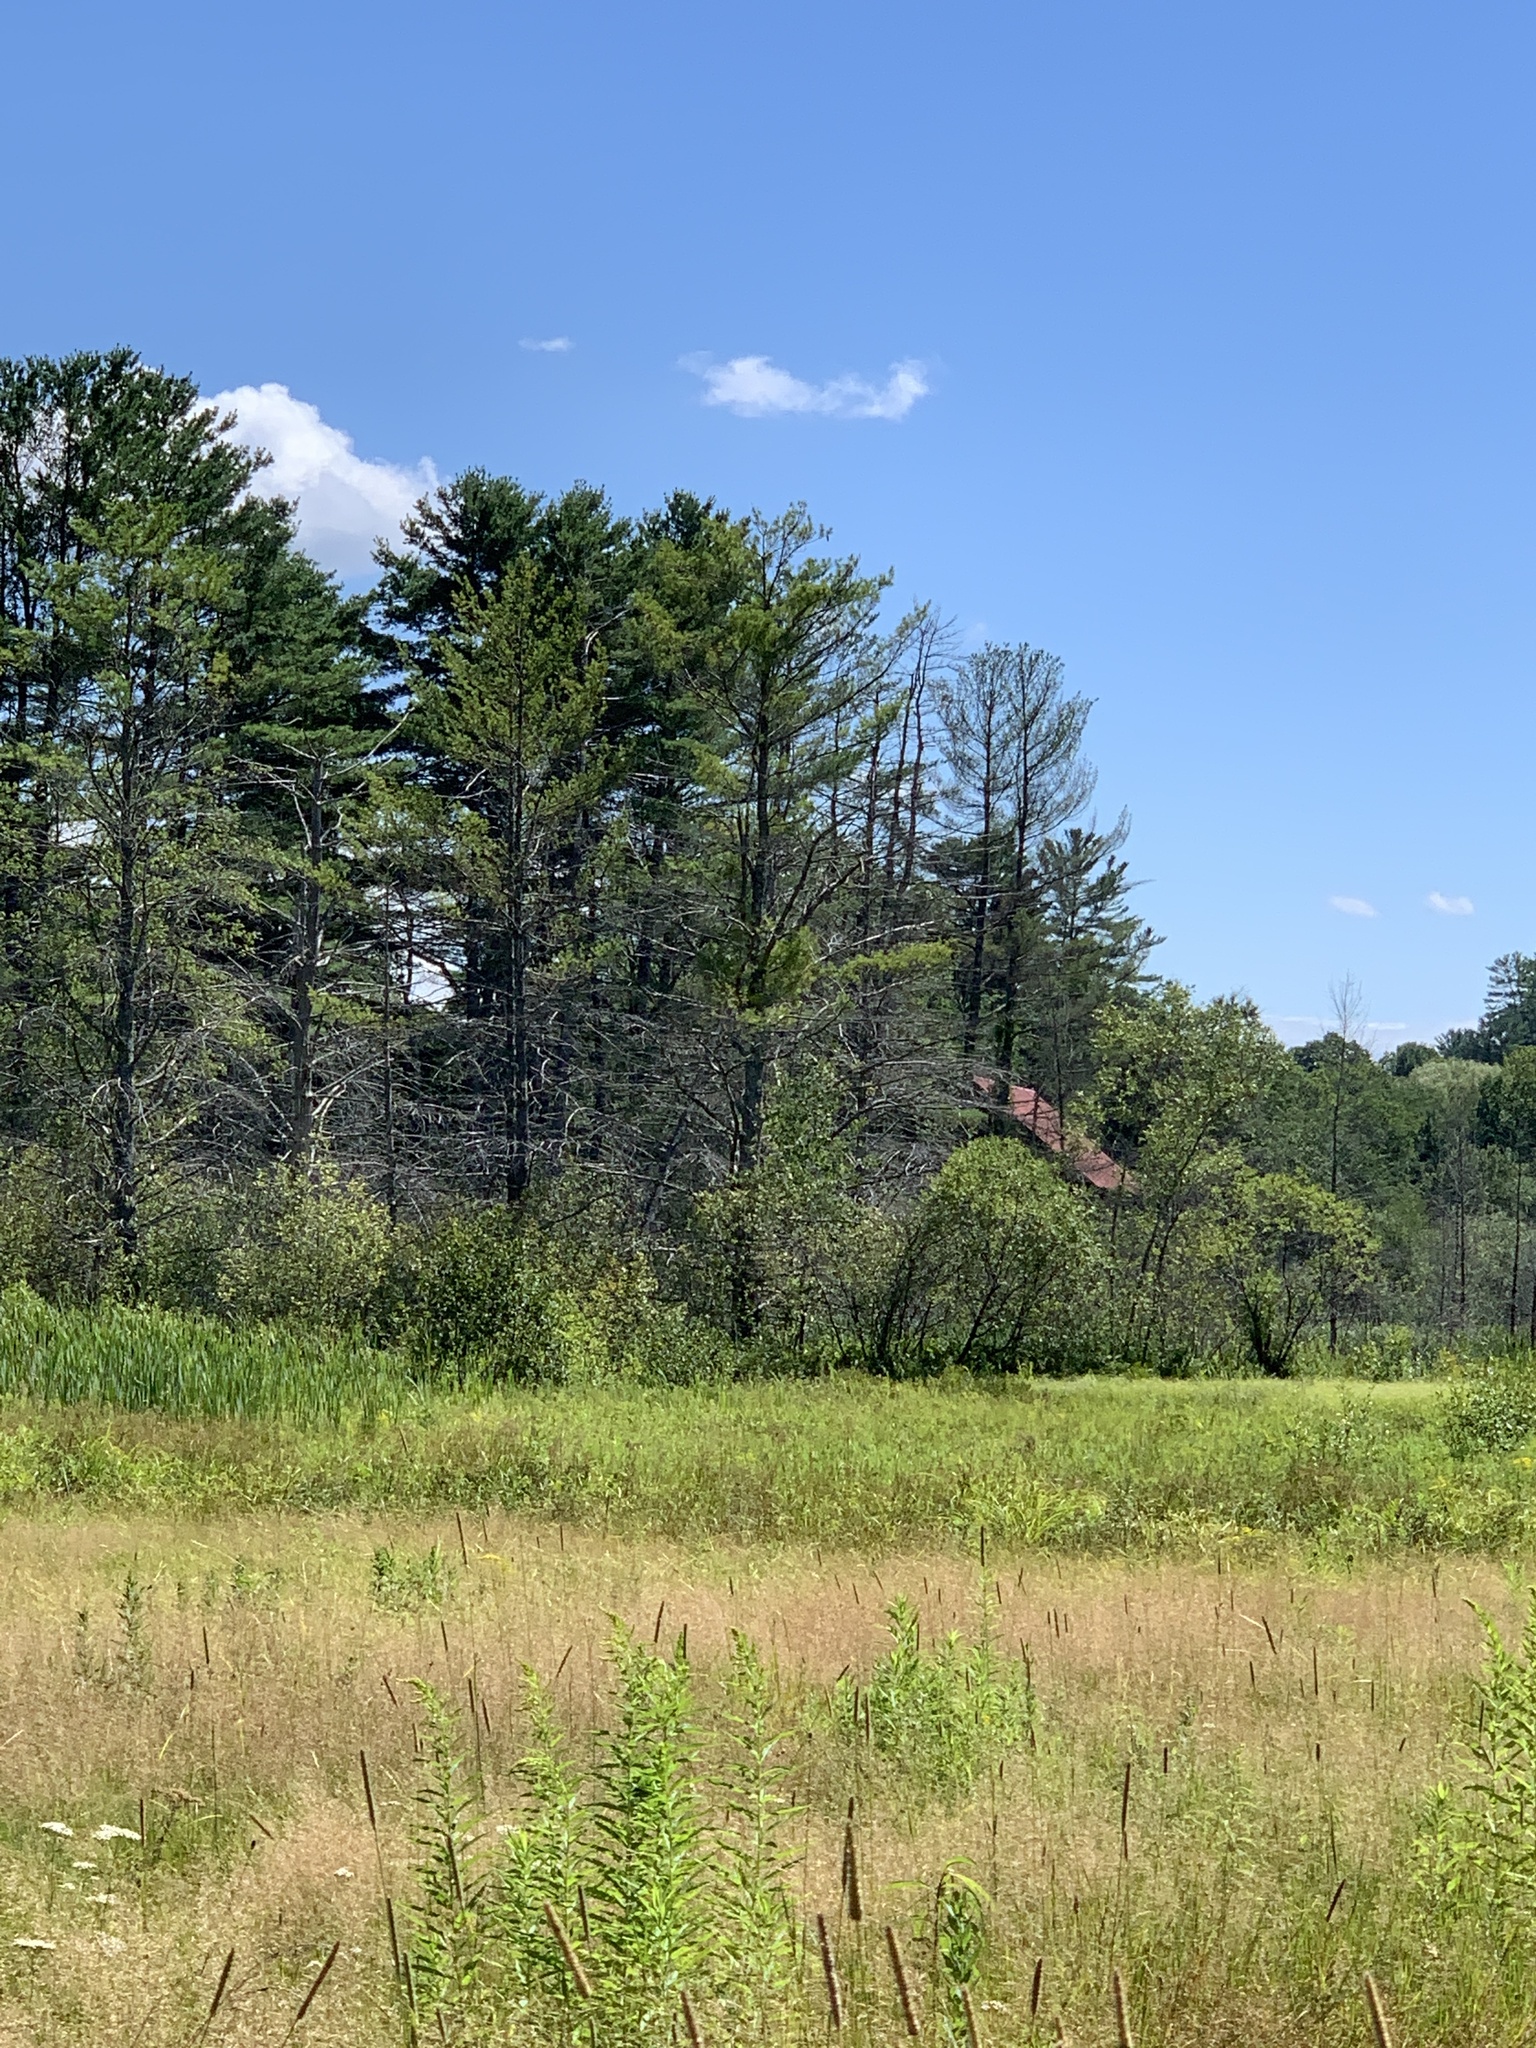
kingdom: Plantae
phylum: Tracheophyta
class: Pinopsida
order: Pinales
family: Pinaceae
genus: Pinus
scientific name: Pinus strobus
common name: Weymouth pine
